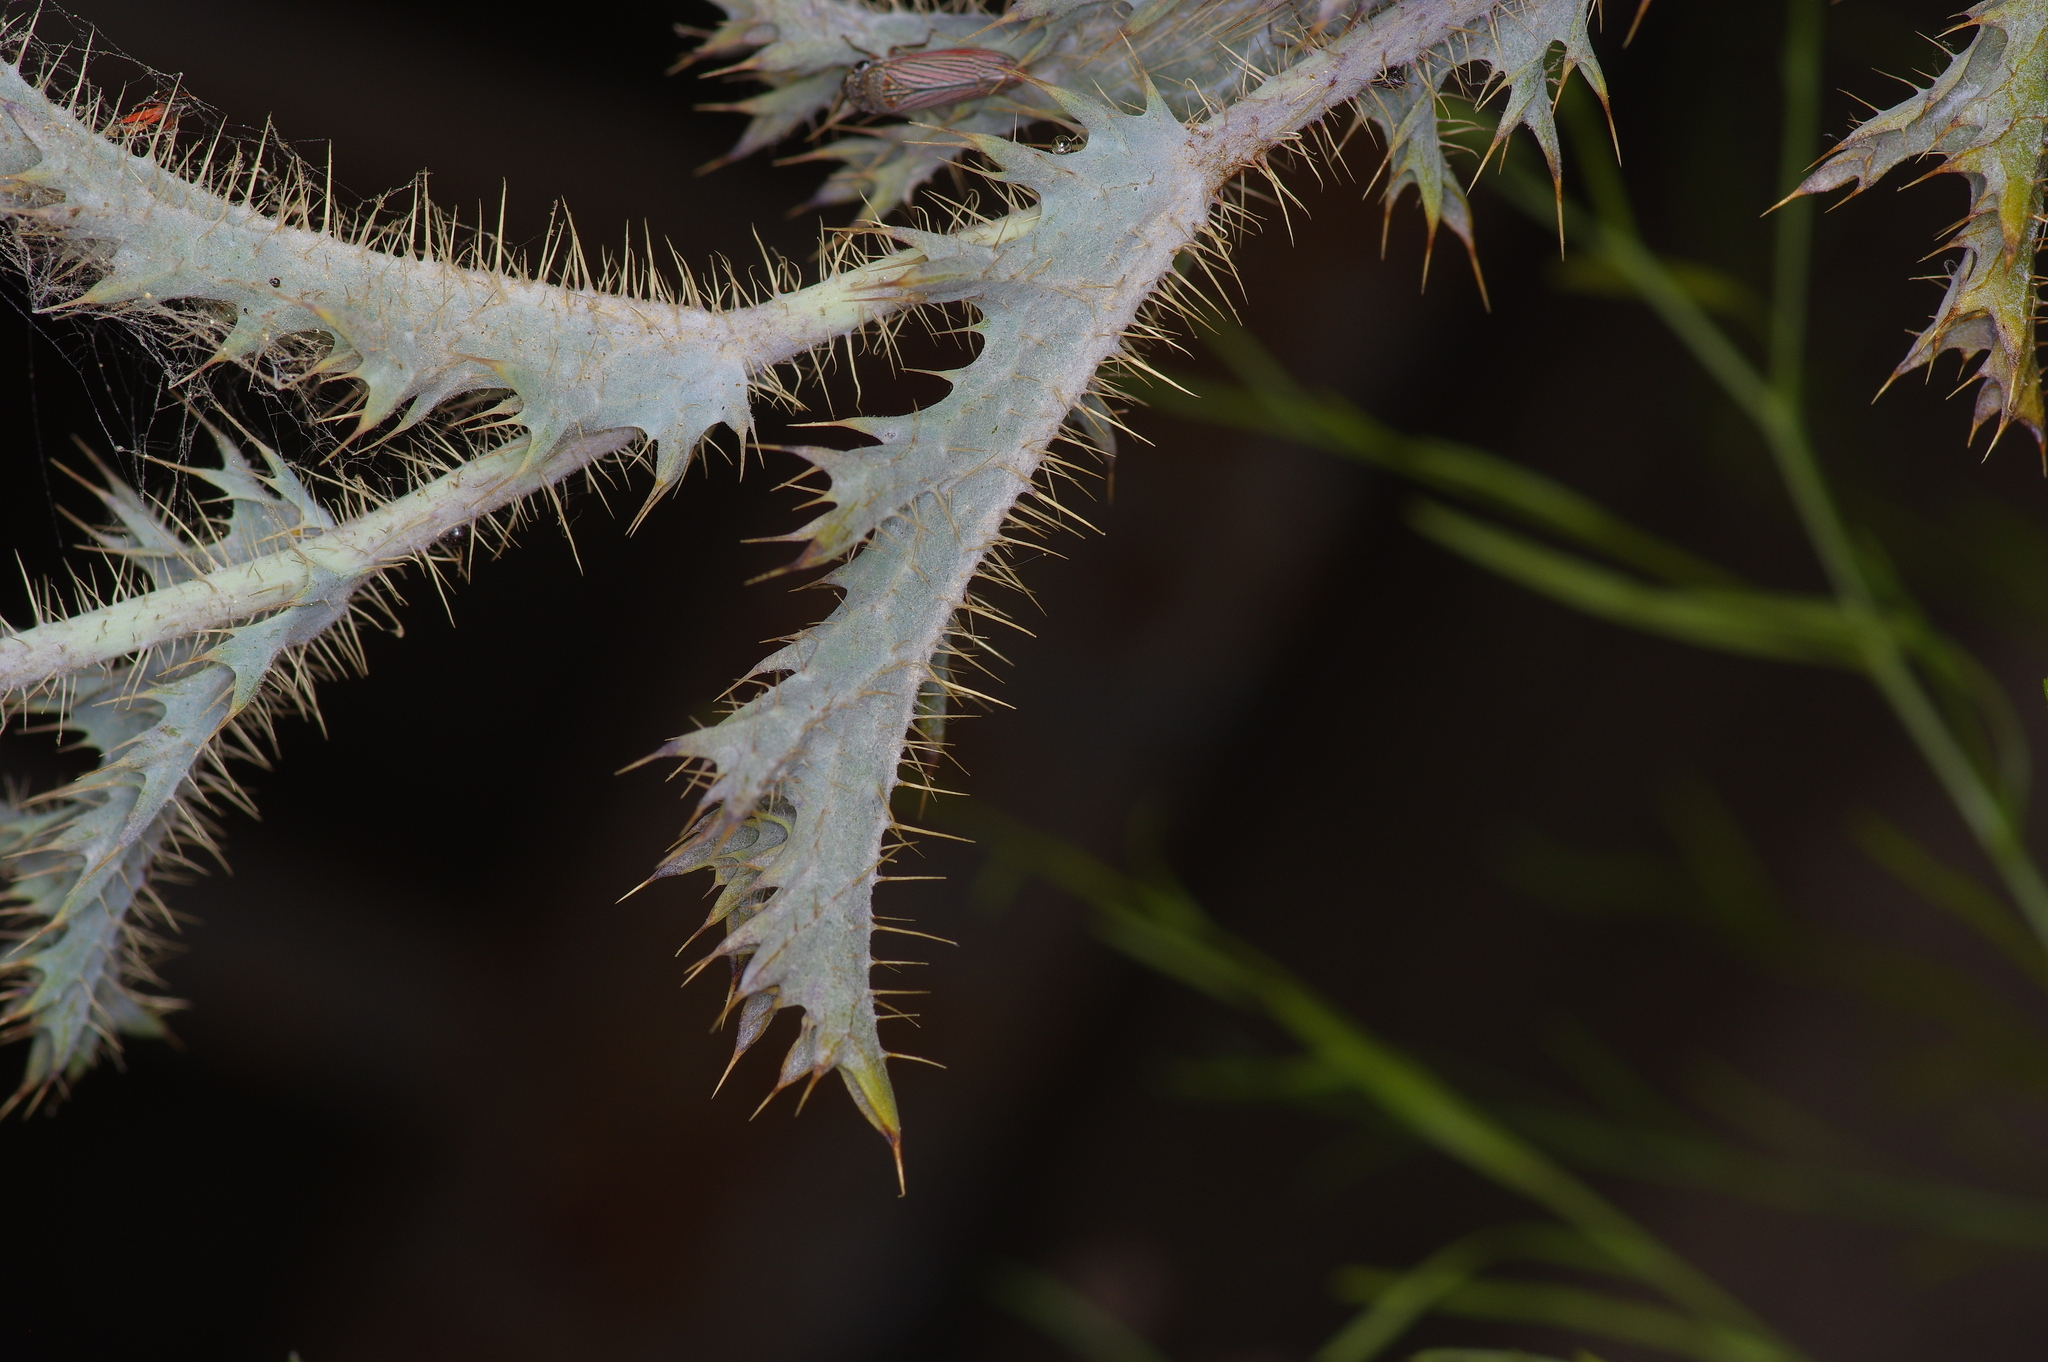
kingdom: Plantae
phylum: Tracheophyta
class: Magnoliopsida
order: Ranunculales
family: Papaveraceae
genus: Argemone
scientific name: Argemone aurantiaca
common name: Texas prickly-poppy
